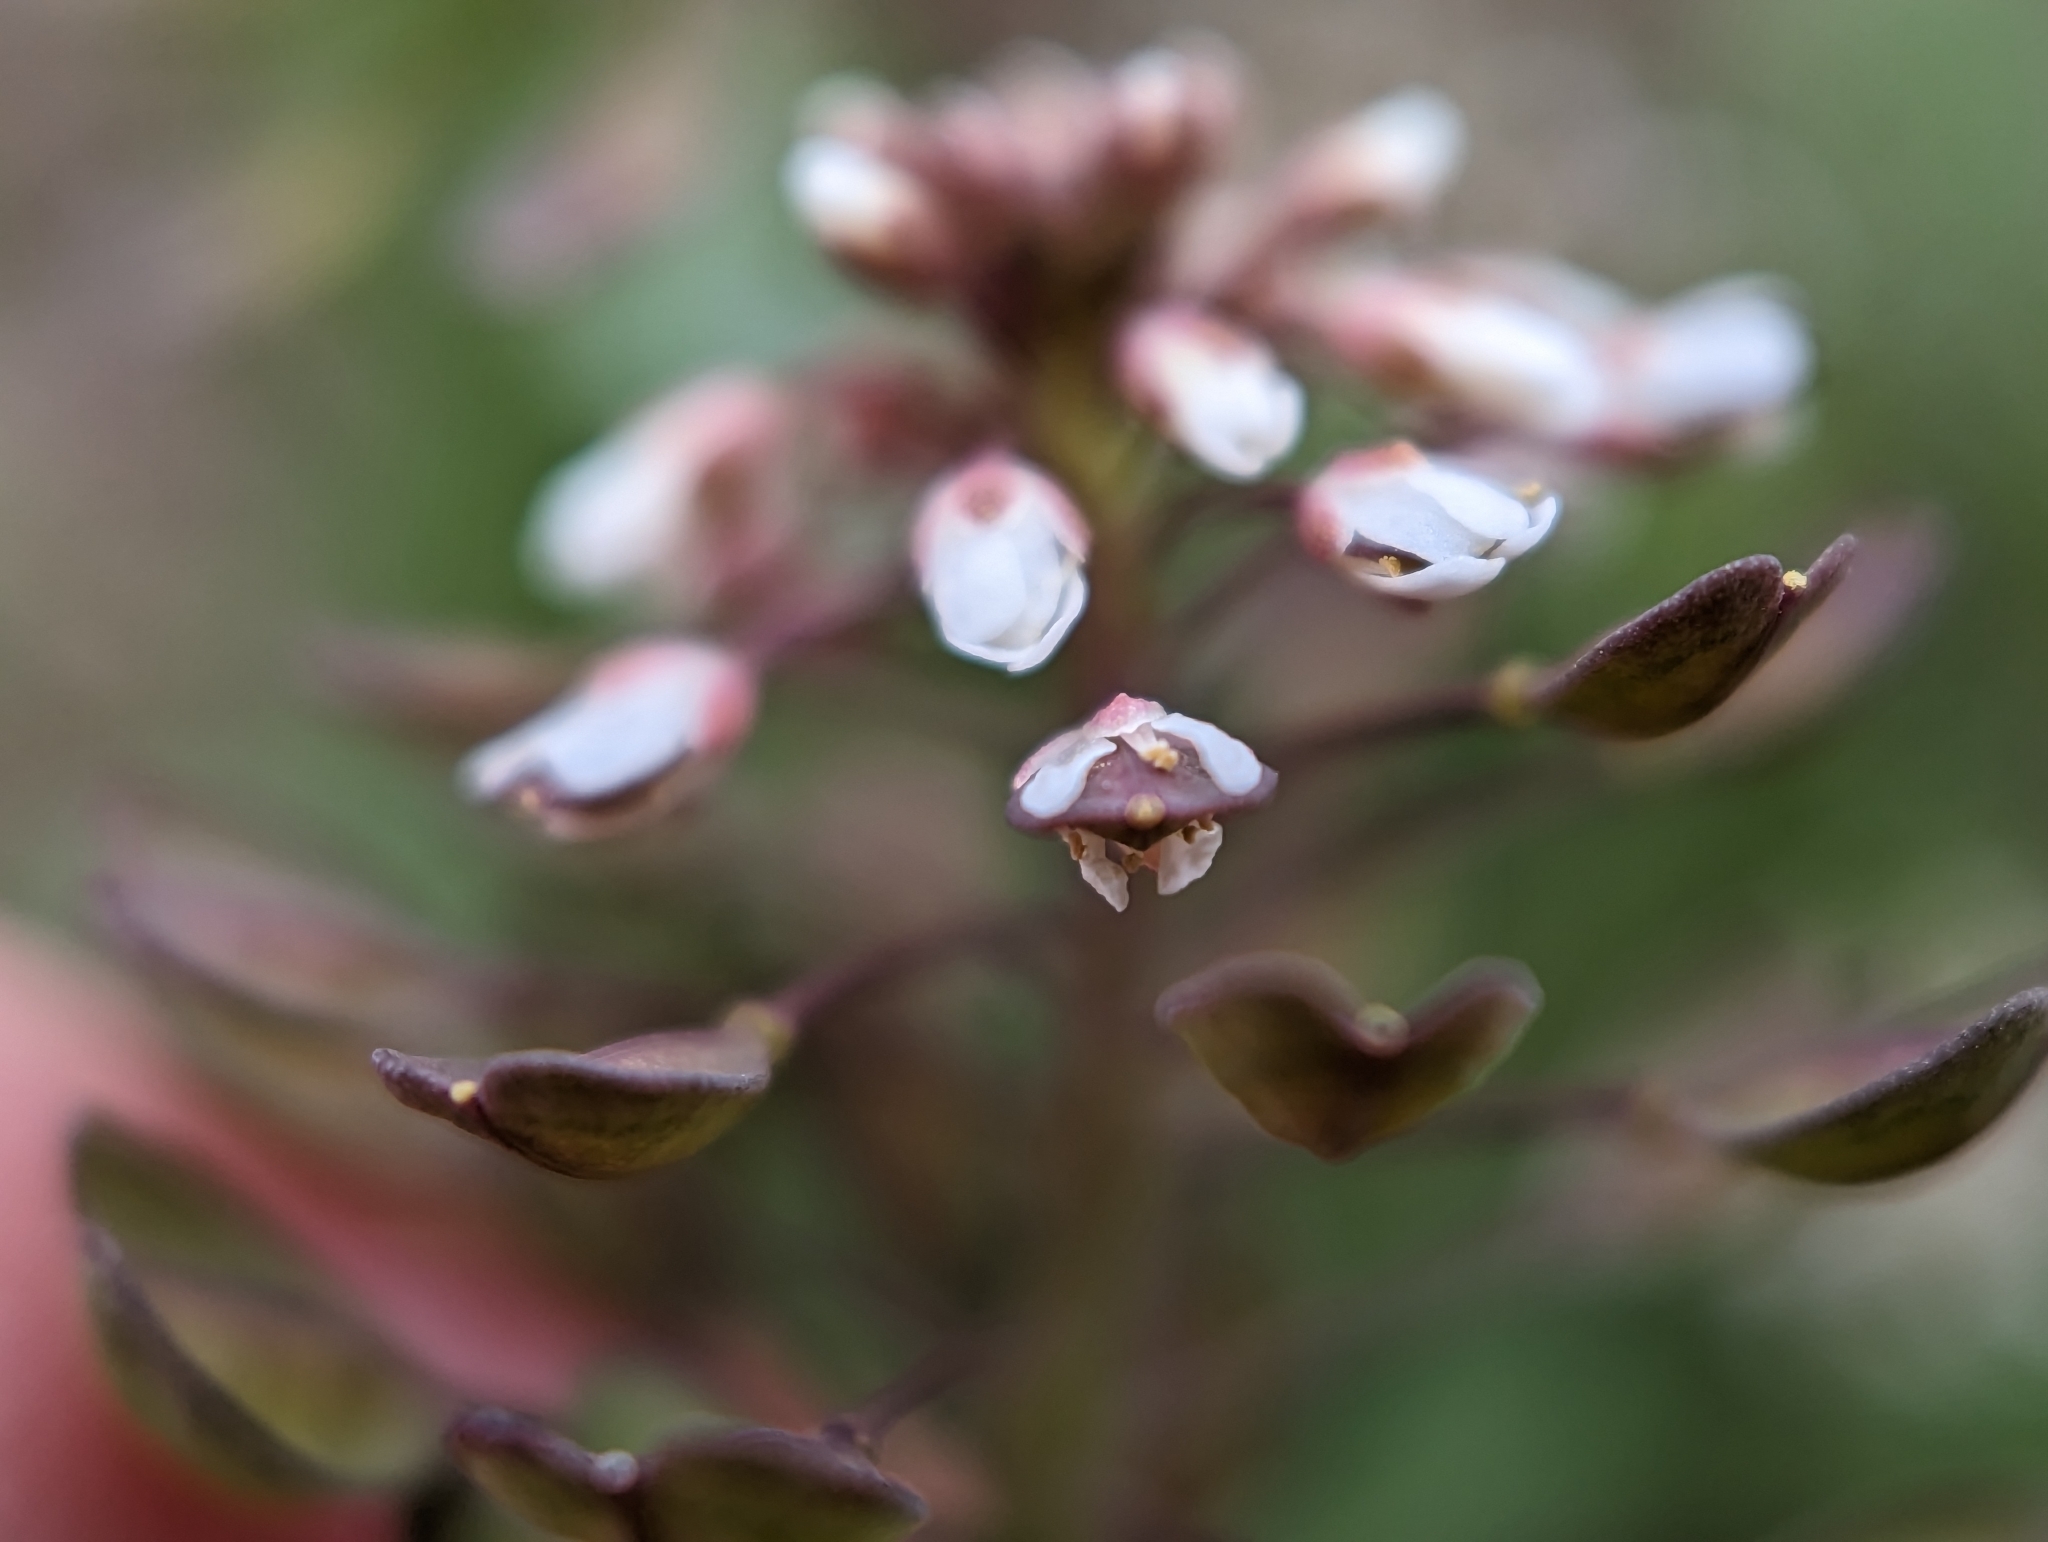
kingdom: Plantae
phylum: Tracheophyta
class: Magnoliopsida
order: Brassicales
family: Brassicaceae
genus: Noccaea
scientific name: Noccaea perfoliata
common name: Perfoliate pennycress
